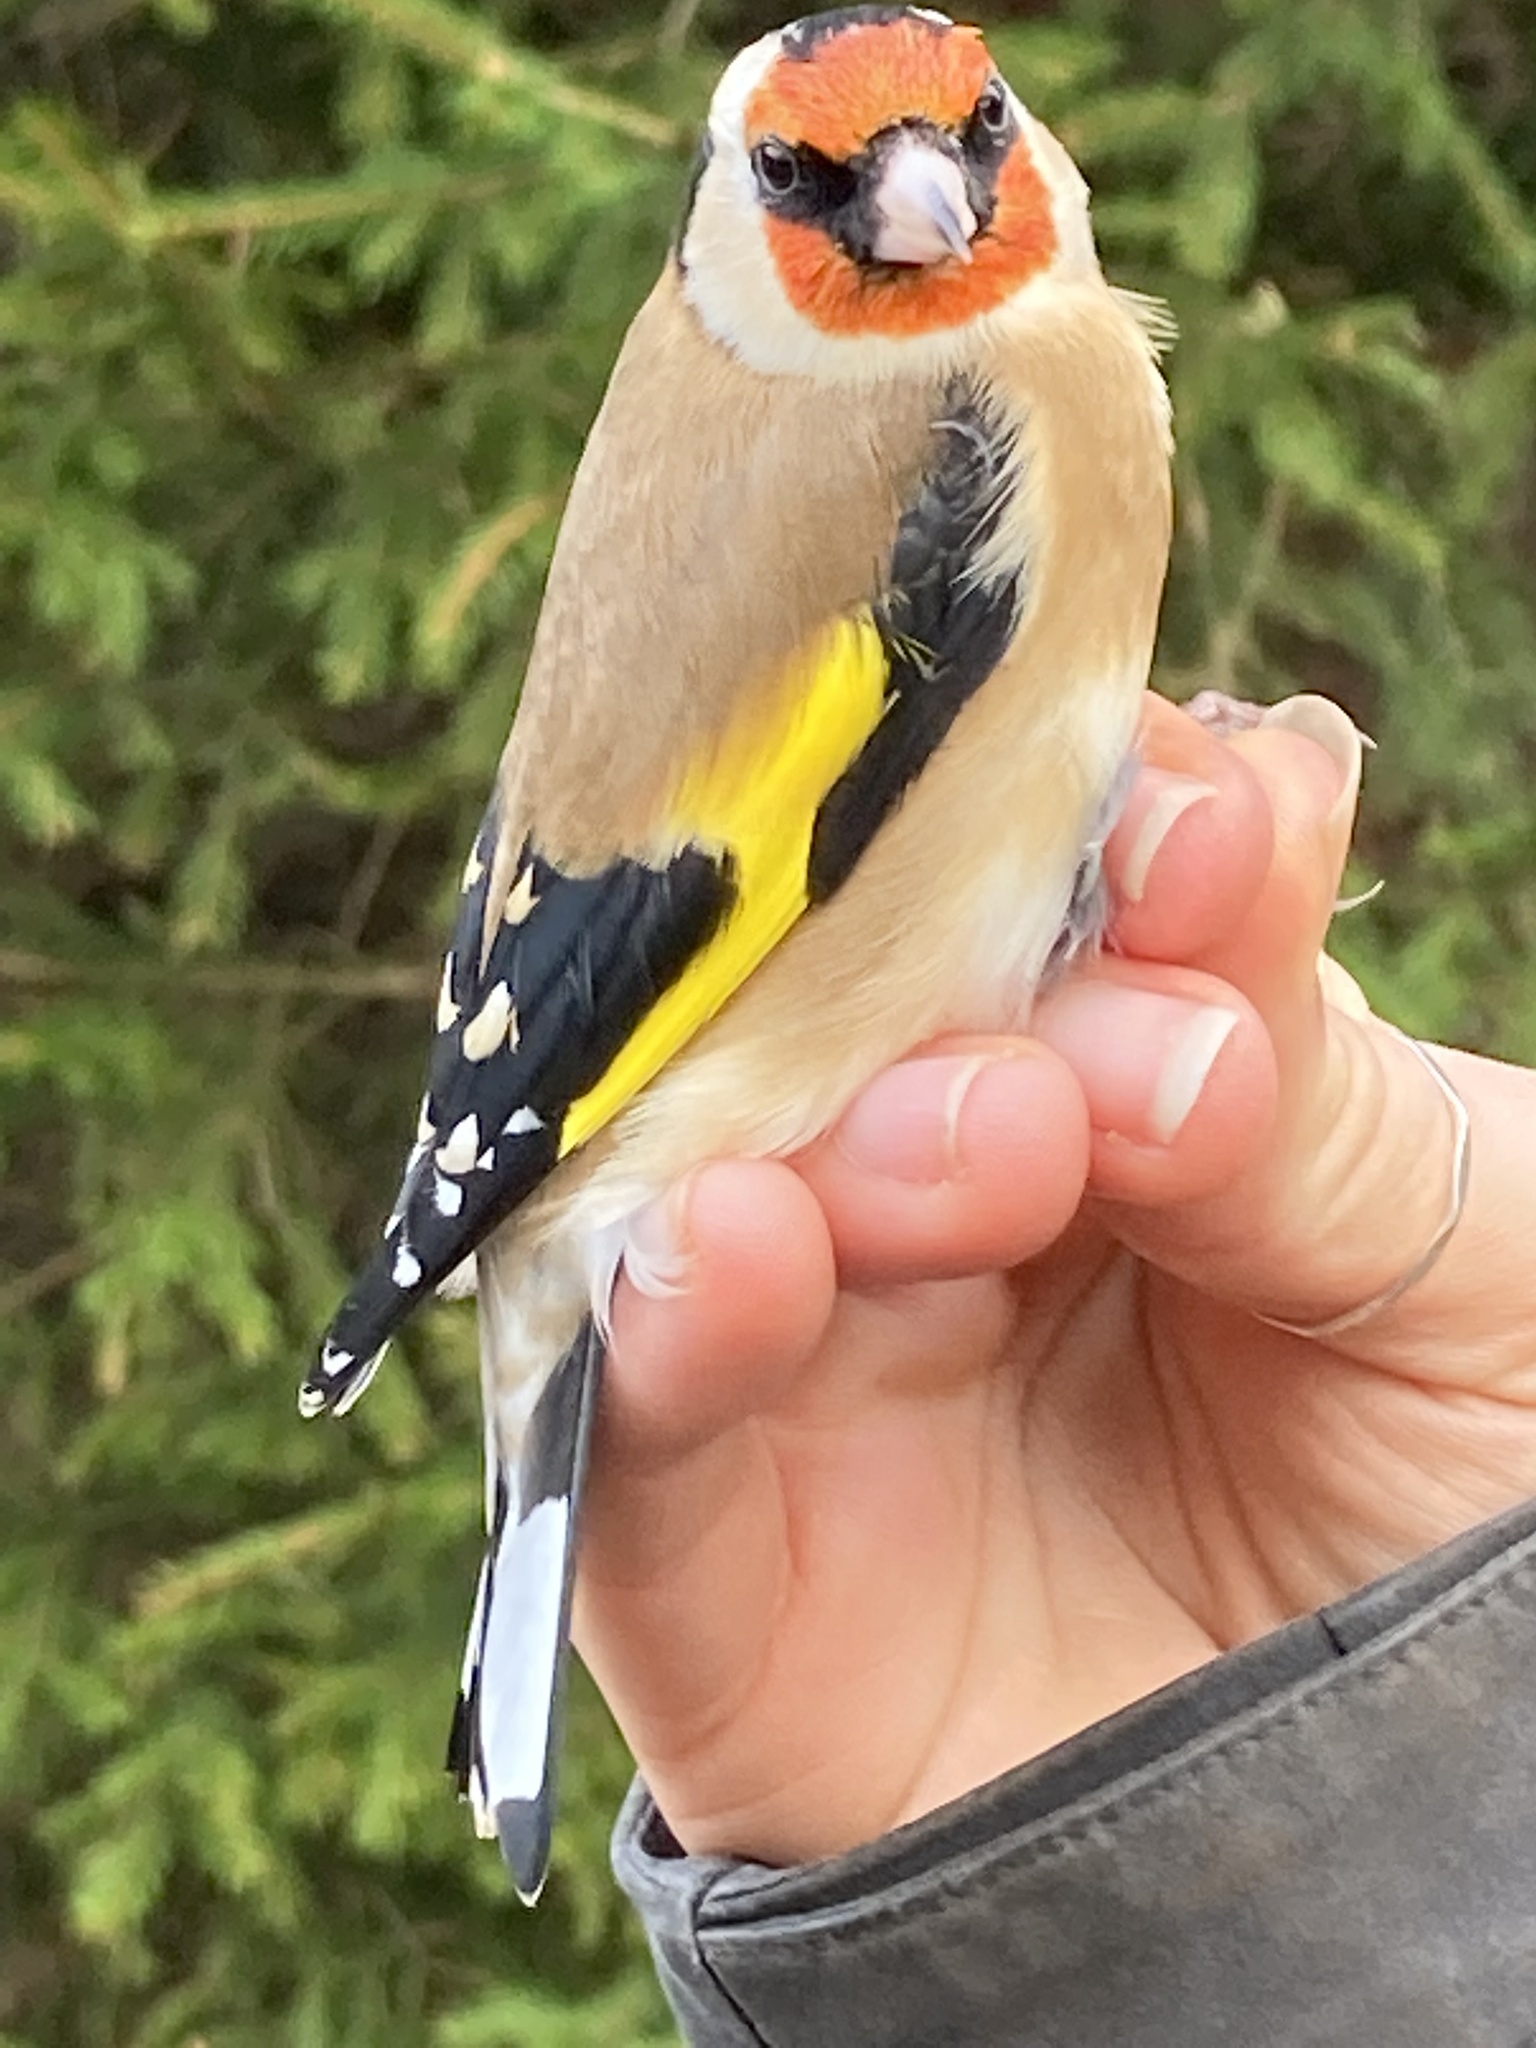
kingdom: Animalia
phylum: Chordata
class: Aves
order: Passeriformes
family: Fringillidae
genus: Carduelis
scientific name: Carduelis carduelis
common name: European goldfinch
